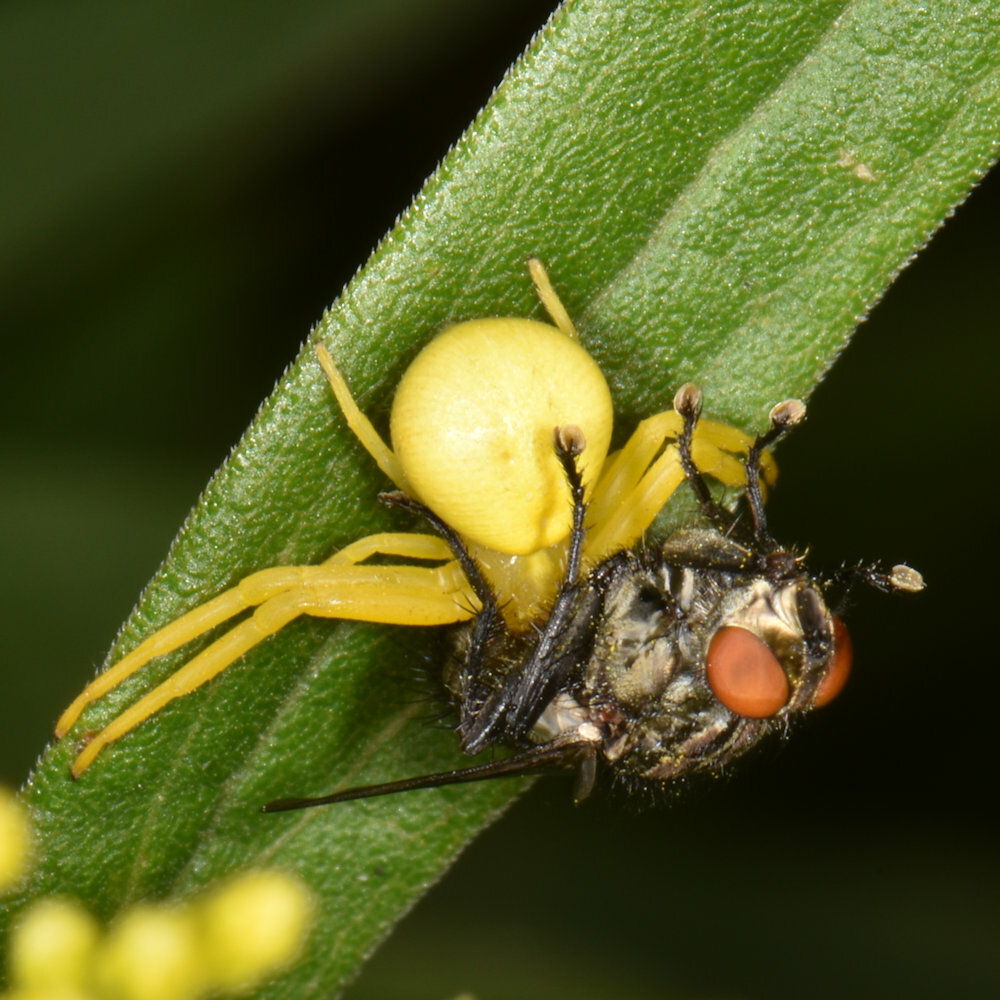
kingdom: Animalia
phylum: Arthropoda
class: Arachnida
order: Araneae
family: Thomisidae
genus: Misumena
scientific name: Misumena vatia
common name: Goldenrod crab spider
